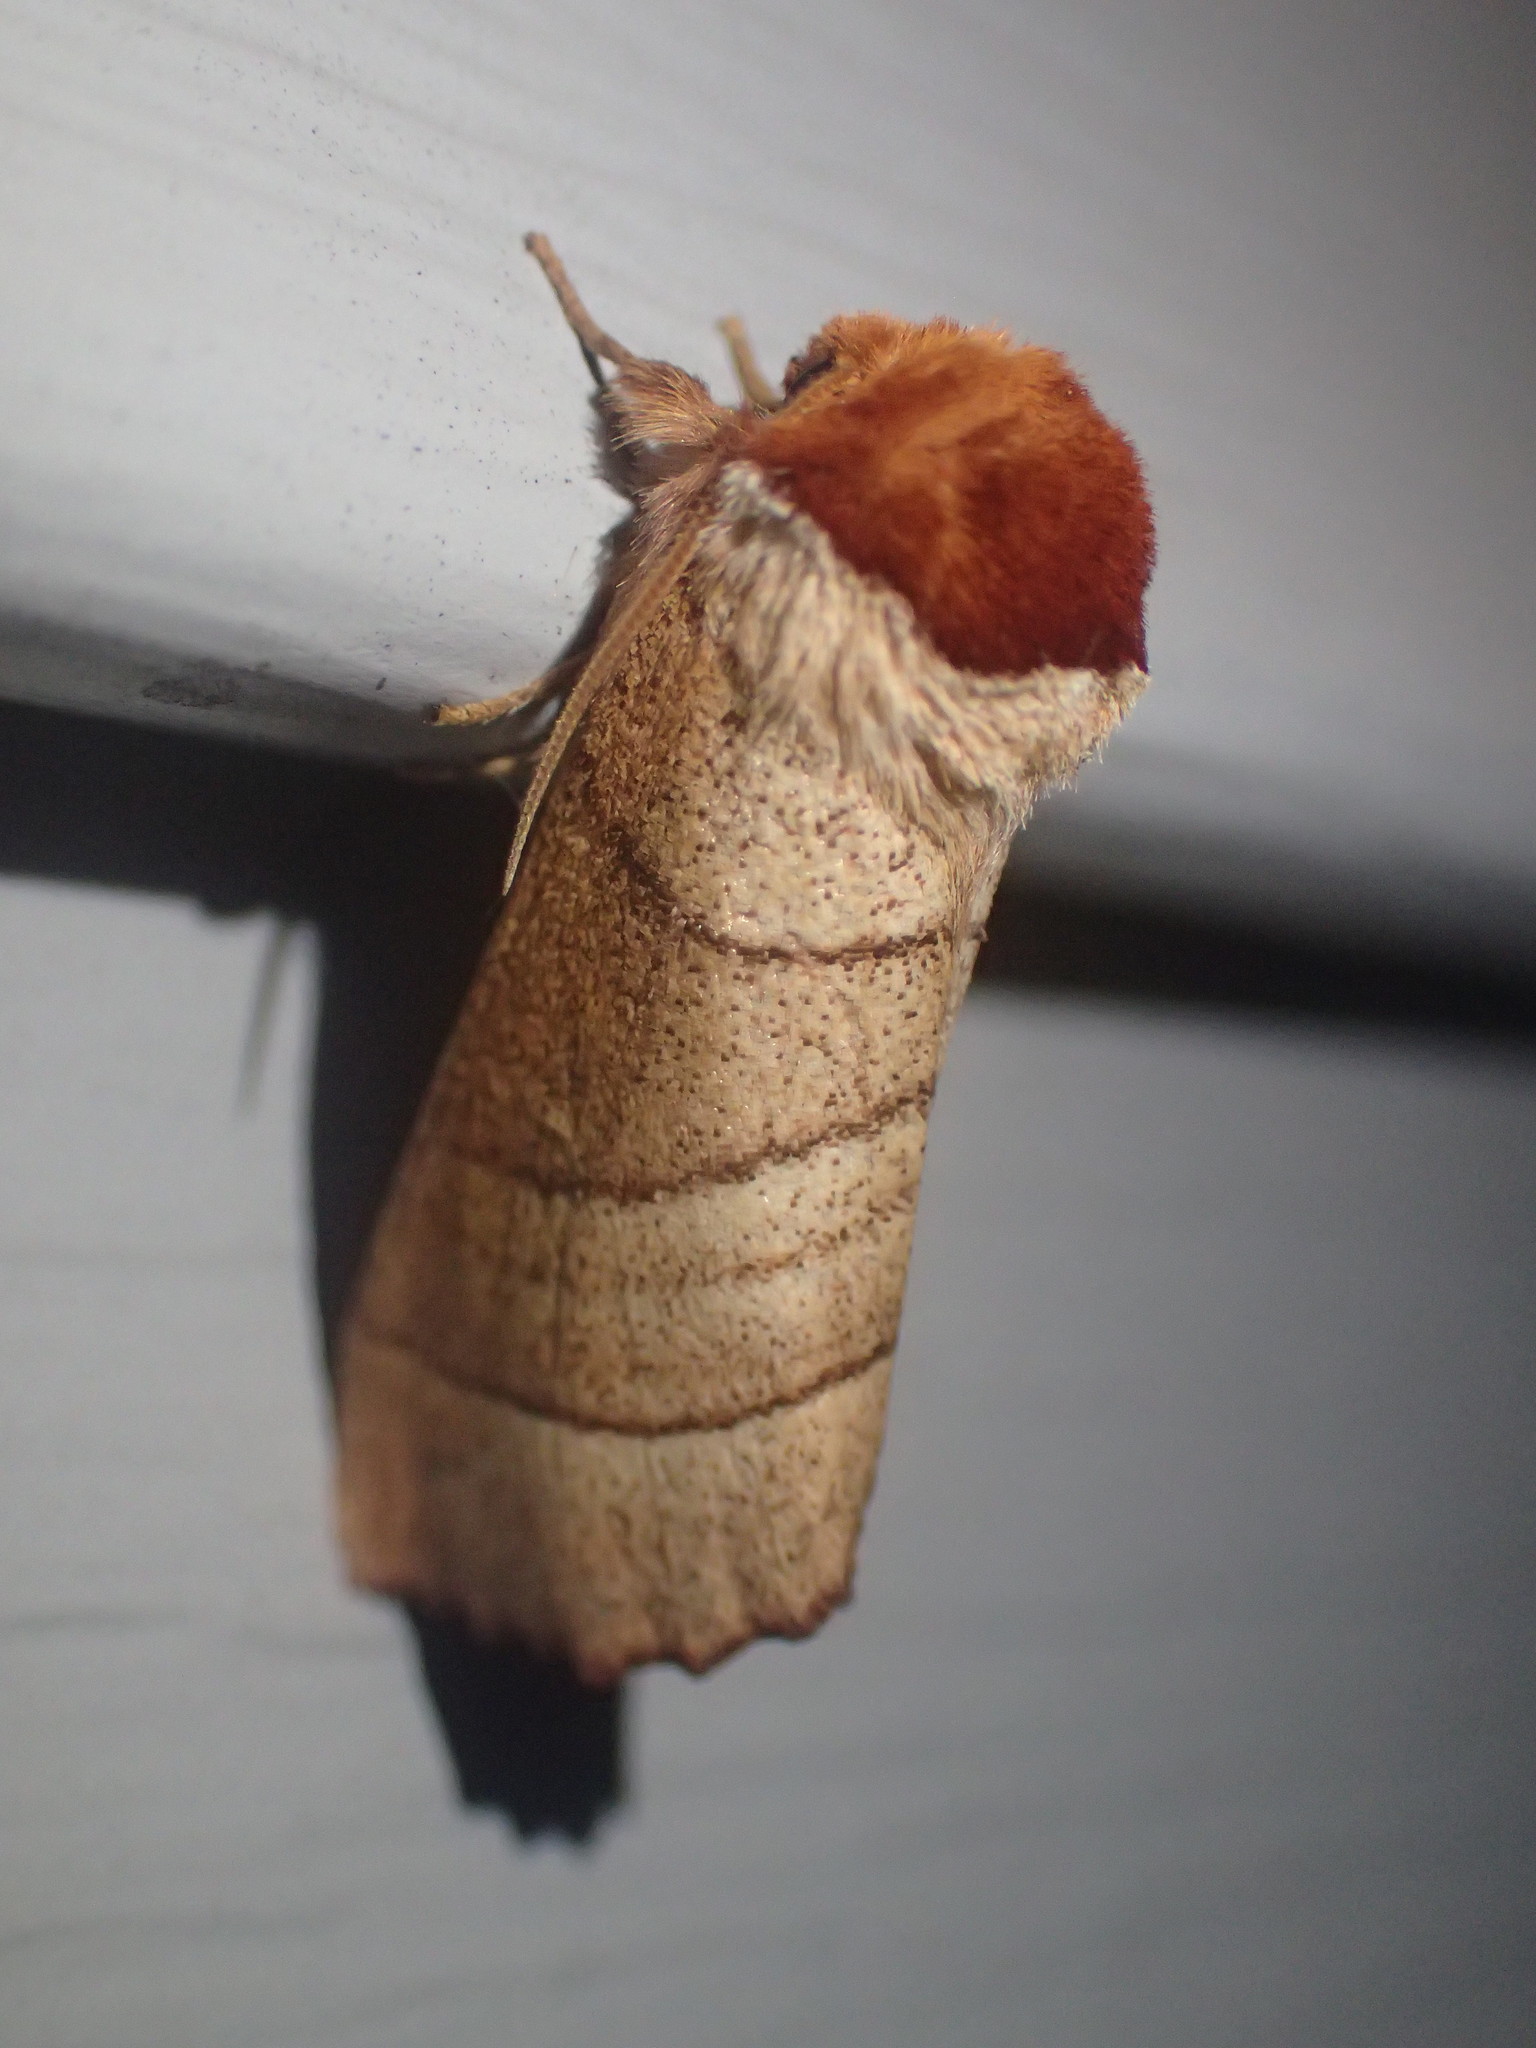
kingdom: Animalia
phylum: Arthropoda
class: Insecta
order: Lepidoptera
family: Notodontidae
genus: Datana
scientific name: Datana ministra
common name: Yellow-necked caterpillar moth
